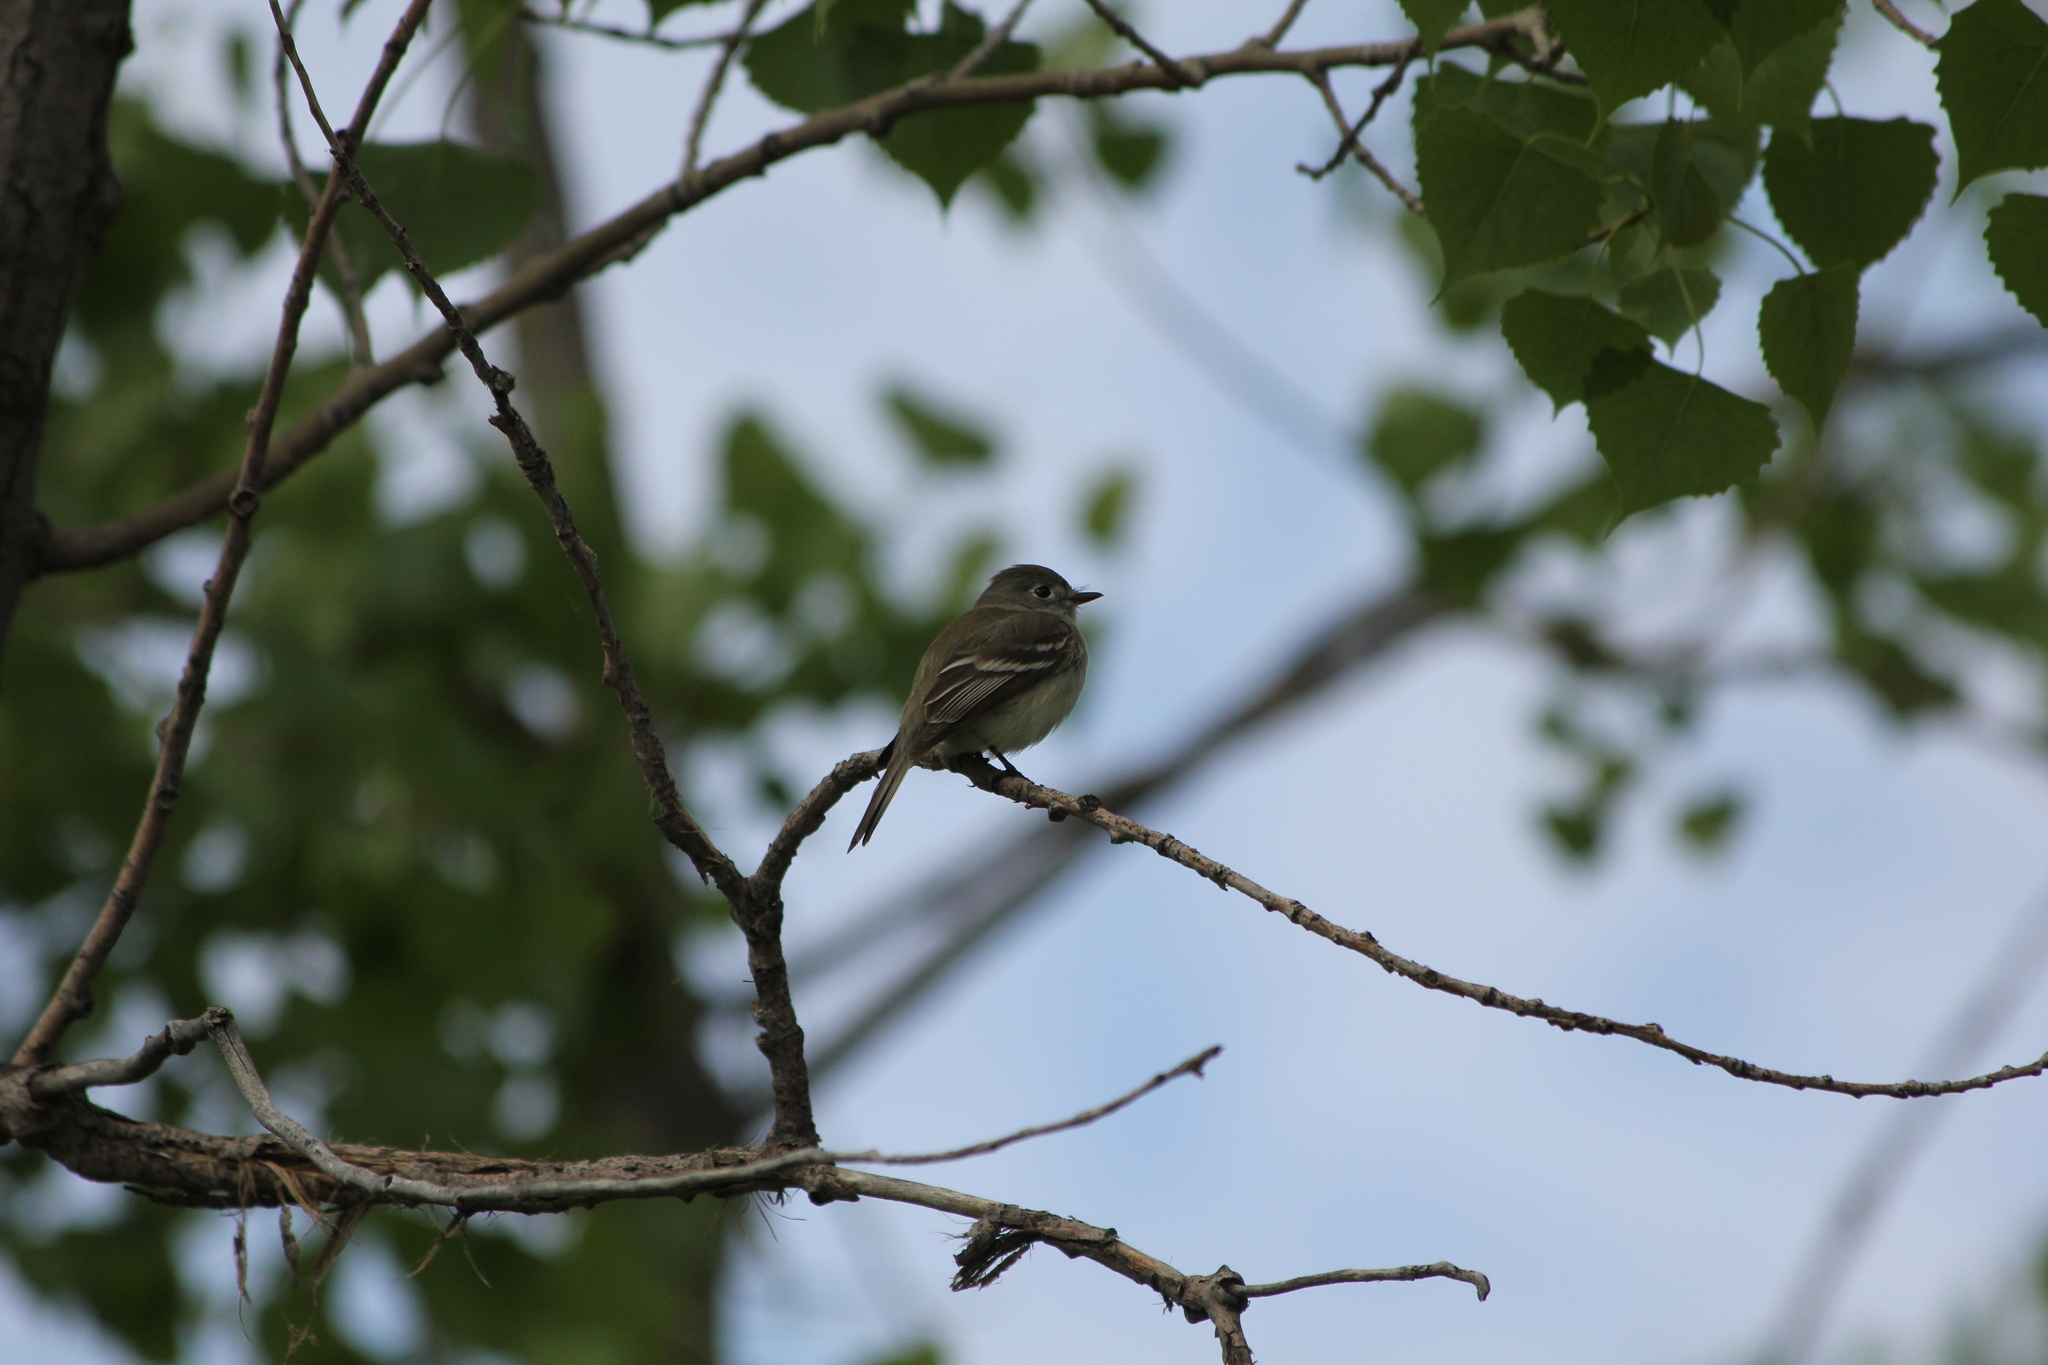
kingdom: Animalia
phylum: Chordata
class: Aves
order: Passeriformes
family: Tyrannidae
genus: Empidonax
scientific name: Empidonax minimus
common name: Least flycatcher
